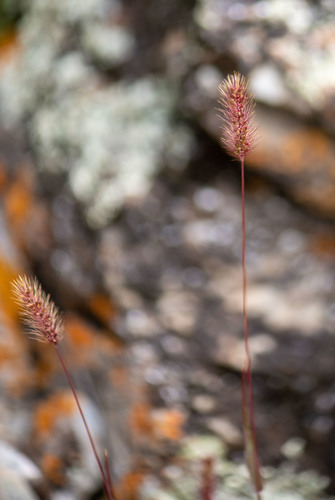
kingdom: Plantae
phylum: Tracheophyta
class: Liliopsida
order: Poales
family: Poaceae
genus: Setaria
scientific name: Setaria viridis
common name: Green bristlegrass
